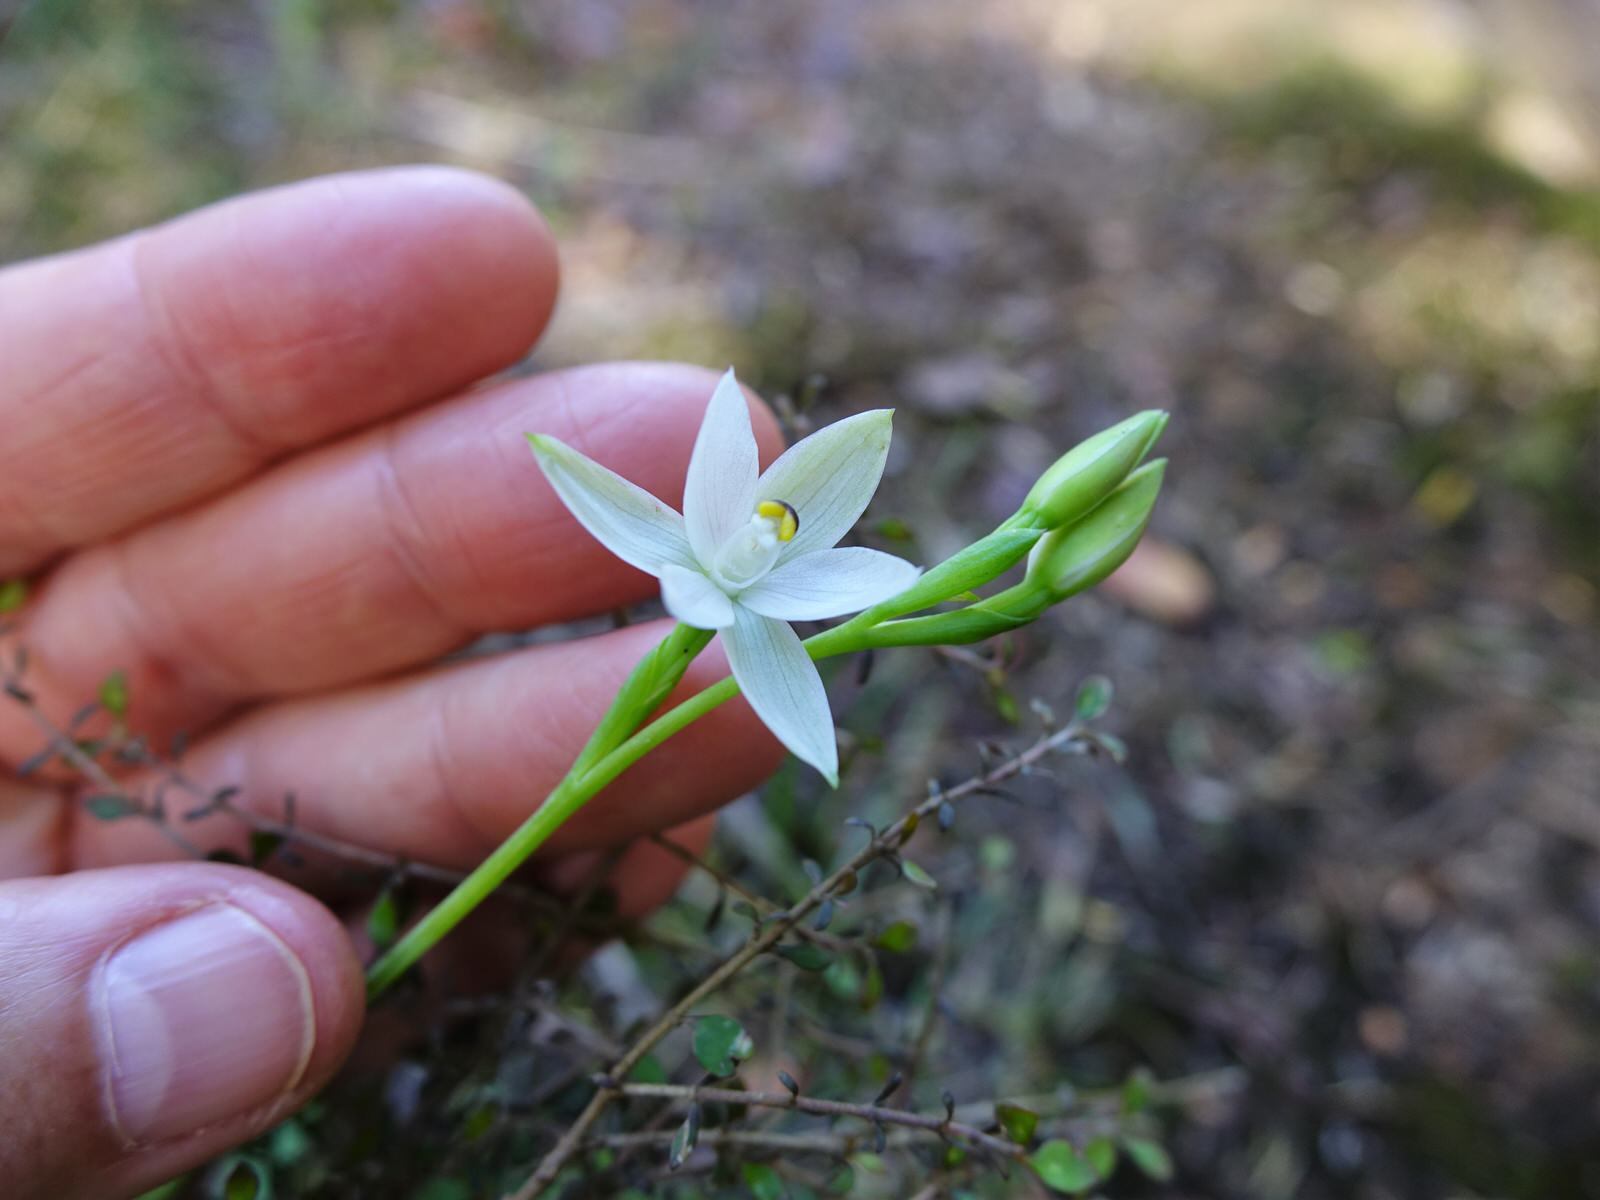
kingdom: Plantae
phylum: Tracheophyta
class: Liliopsida
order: Asparagales
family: Orchidaceae
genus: Thelymitra
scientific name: Thelymitra longifolia
